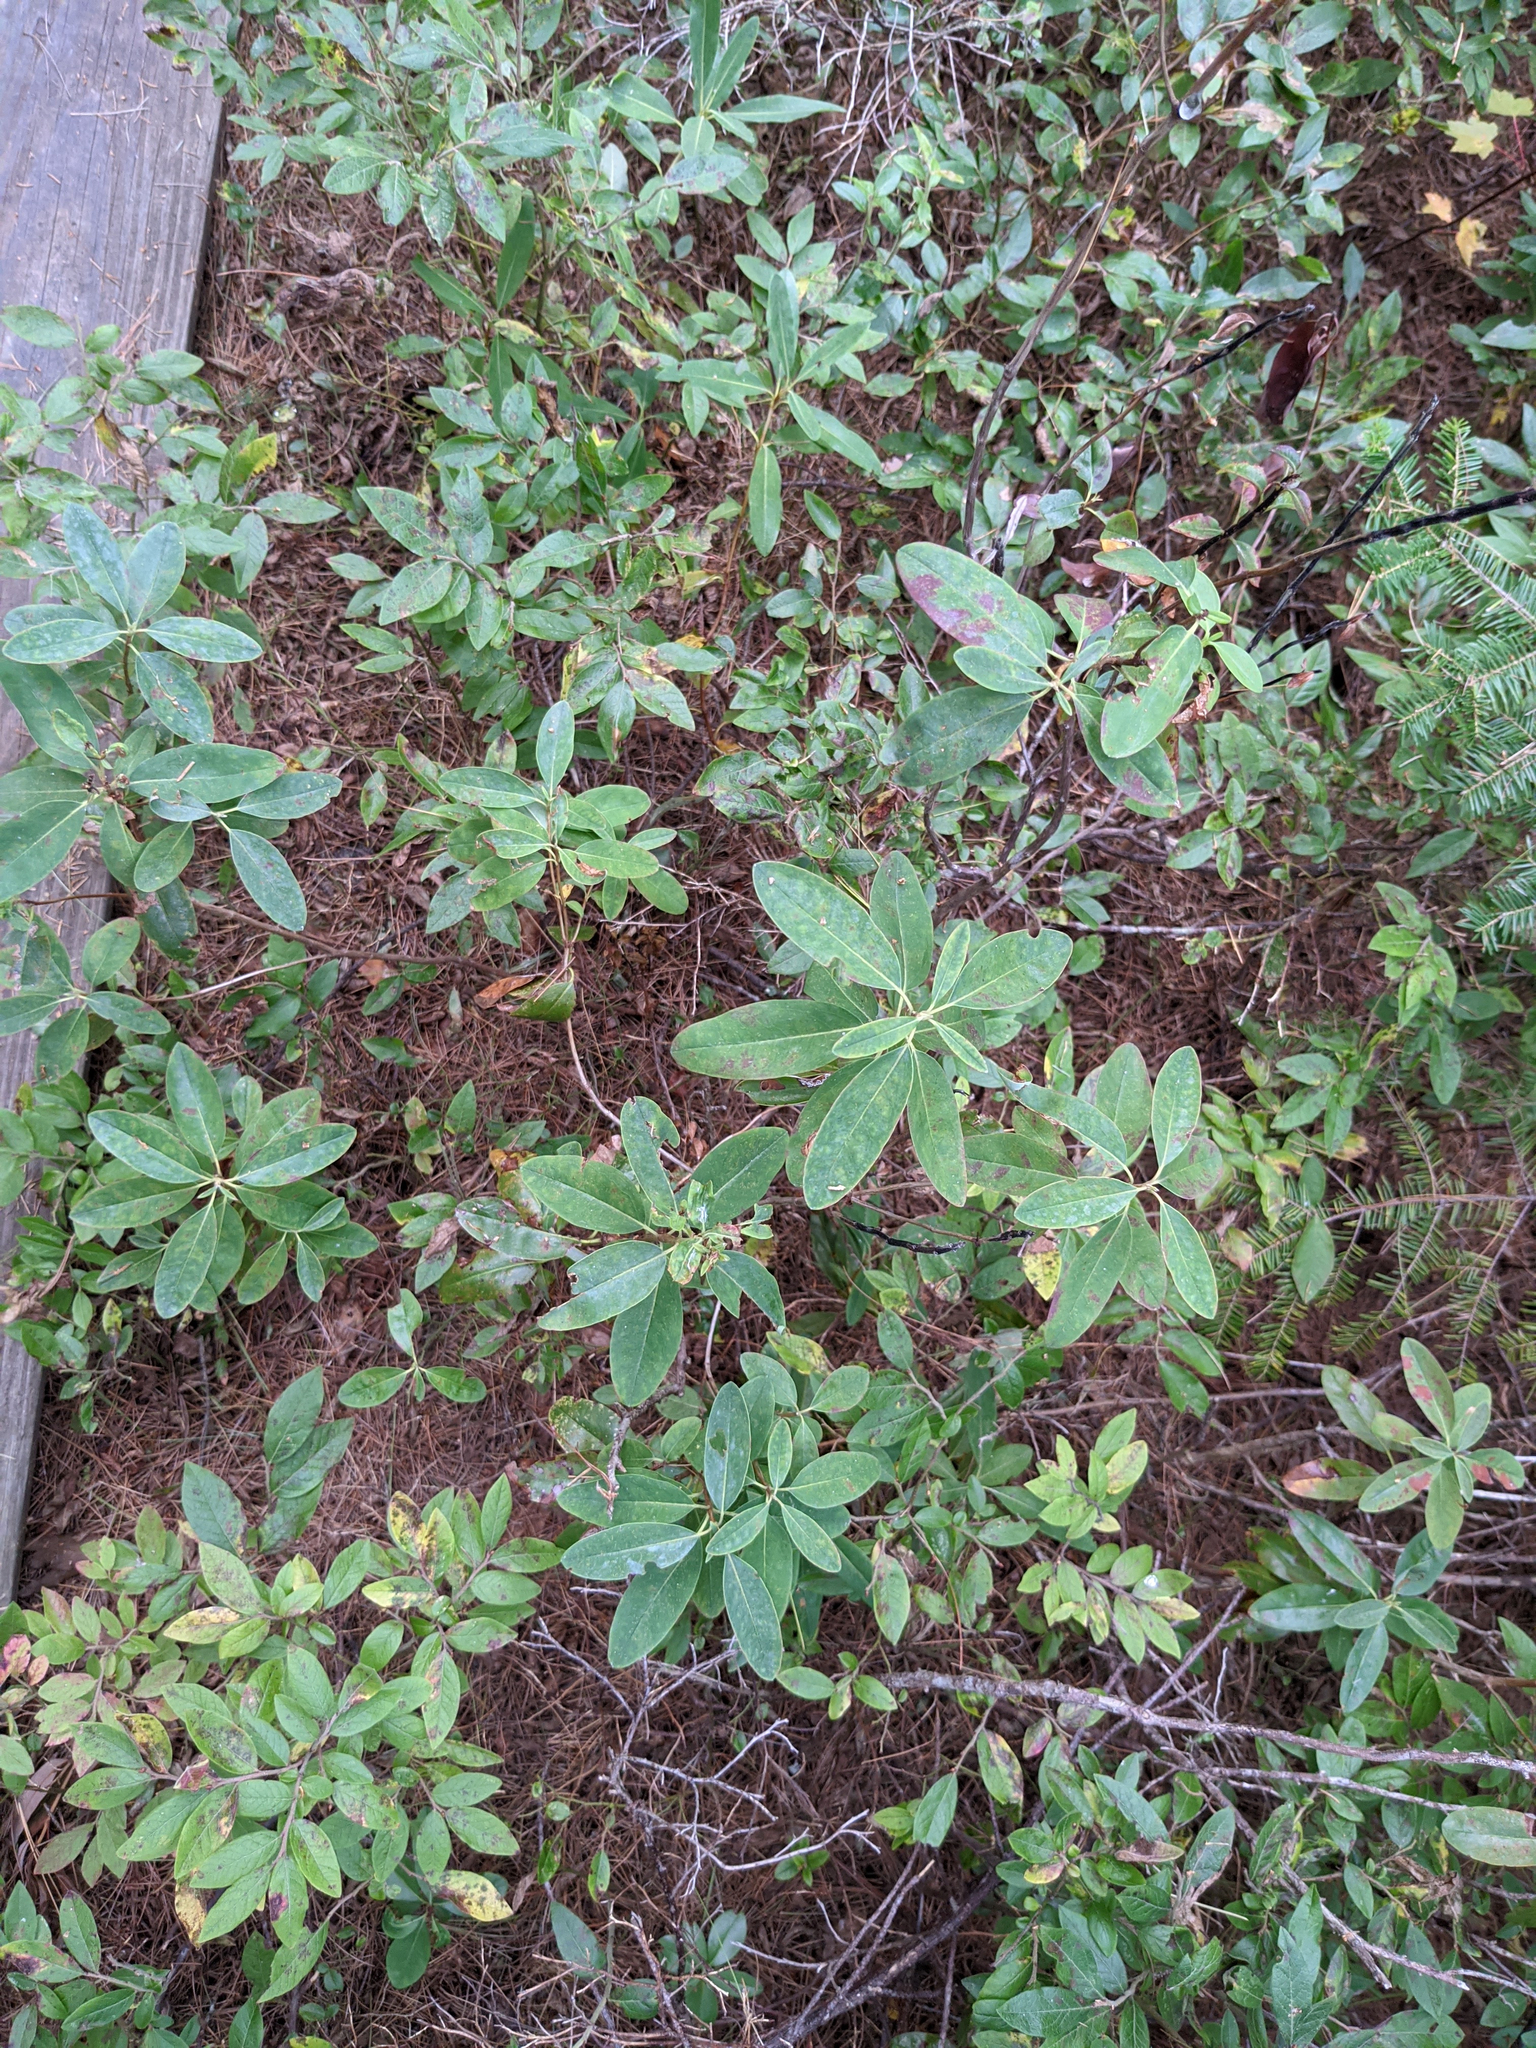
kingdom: Plantae
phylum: Tracheophyta
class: Magnoliopsida
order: Ericales
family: Ericaceae
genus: Kalmia
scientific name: Kalmia angustifolia
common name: Sheep-laurel
